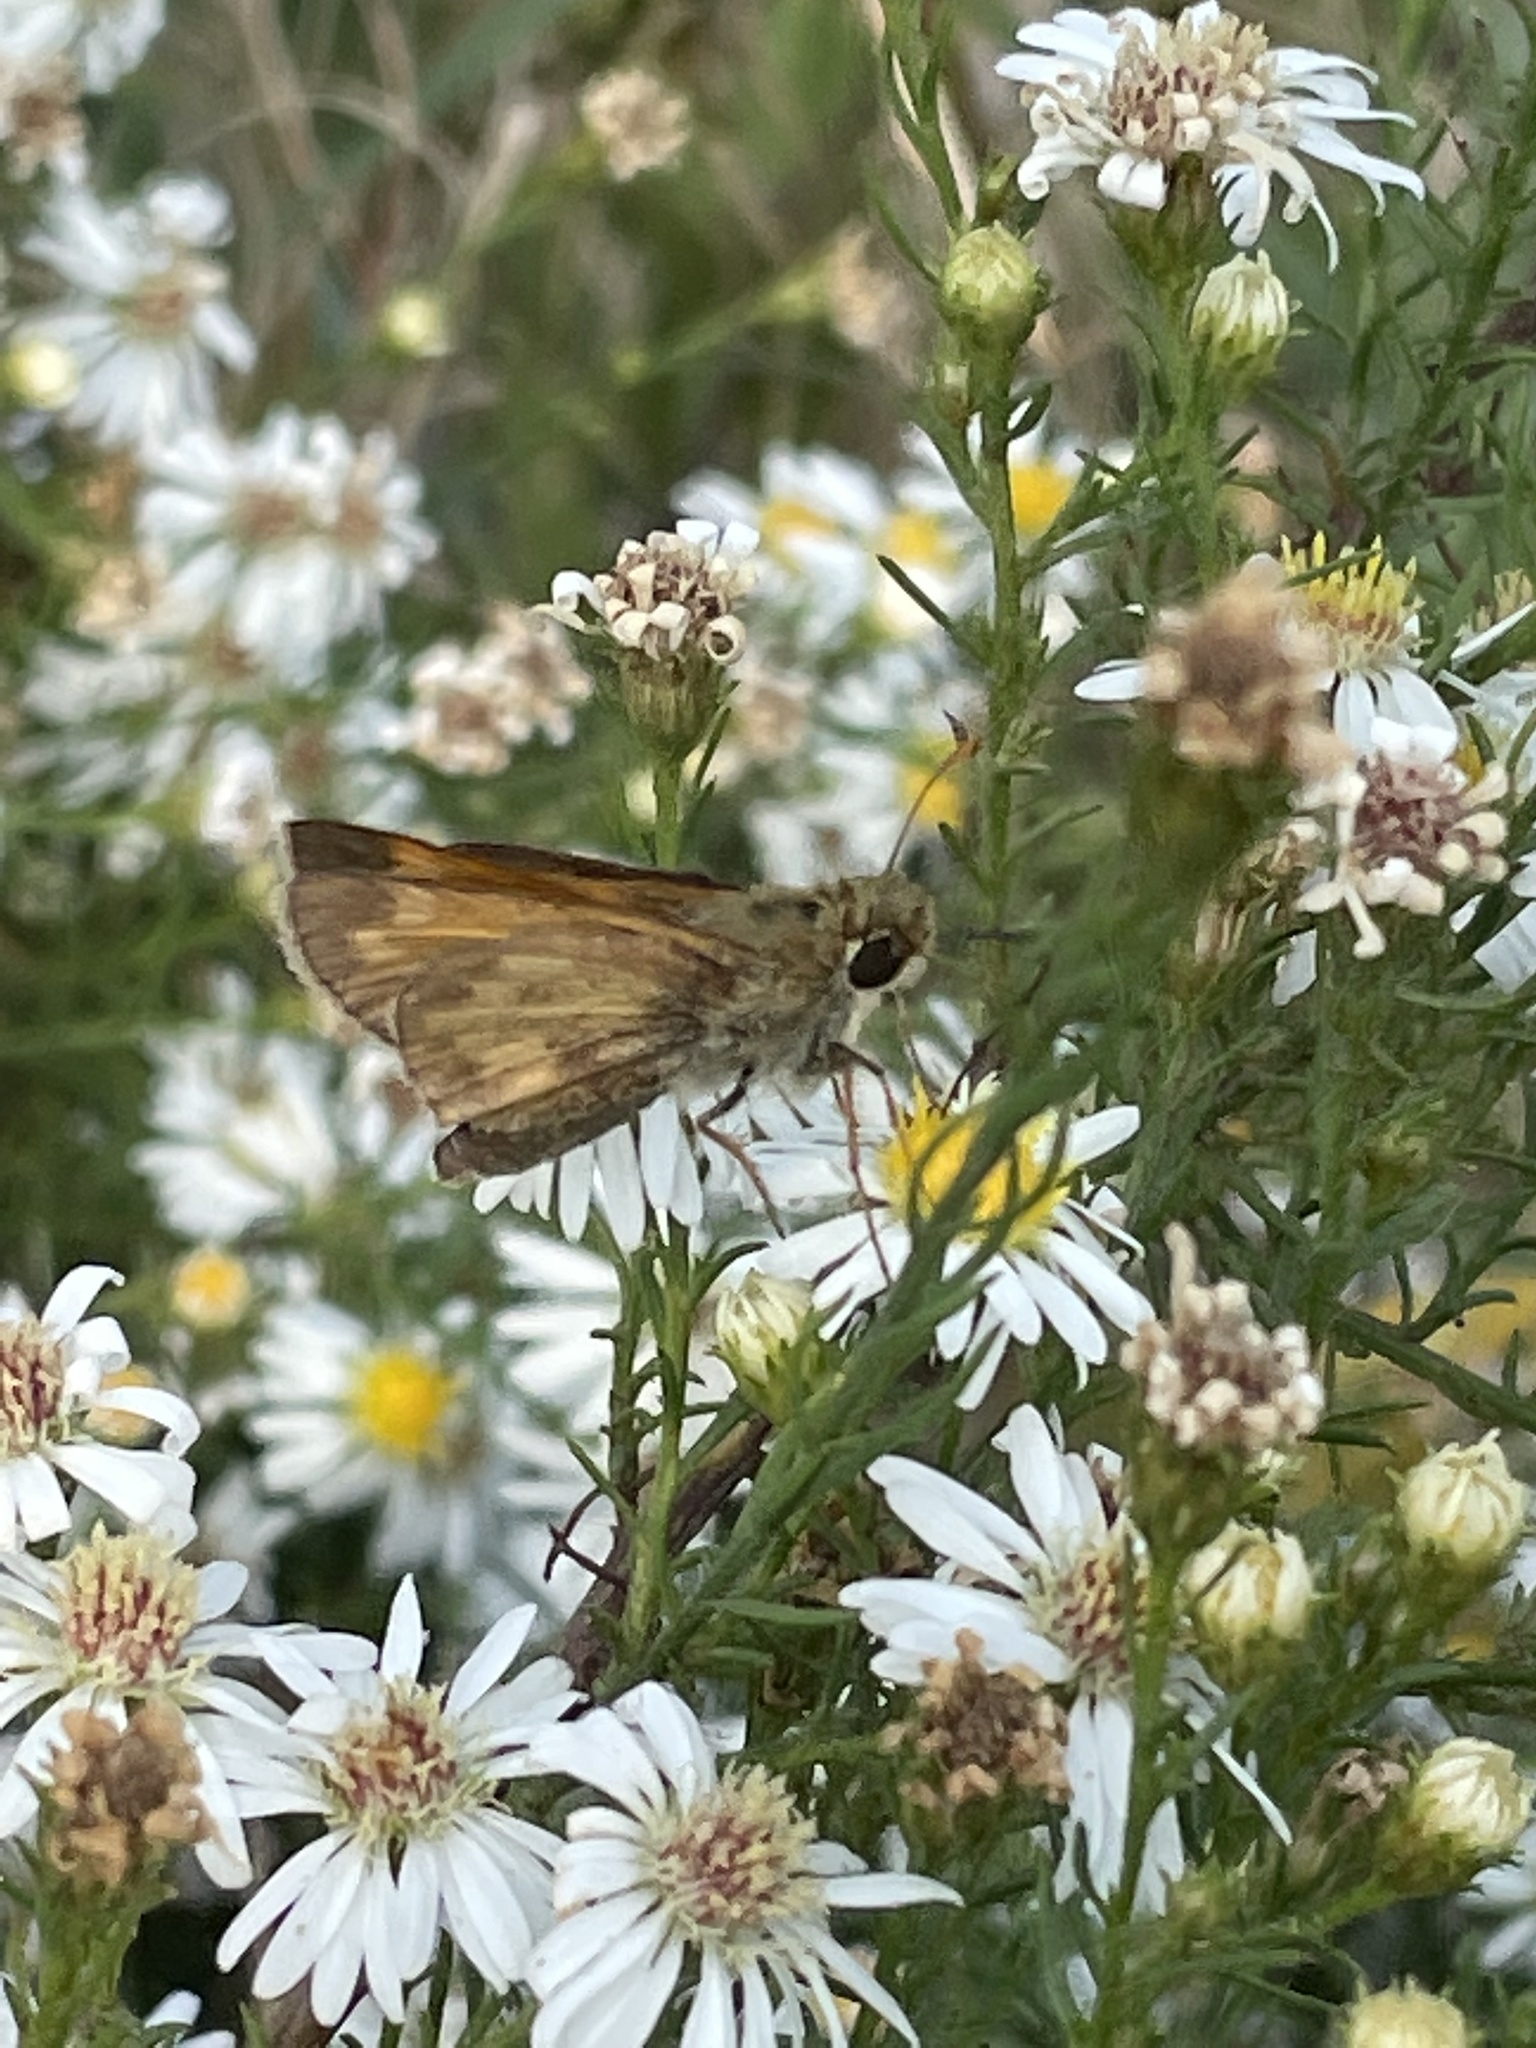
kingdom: Animalia
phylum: Arthropoda
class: Insecta
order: Lepidoptera
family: Hesperiidae
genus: Atalopedes
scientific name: Atalopedes
